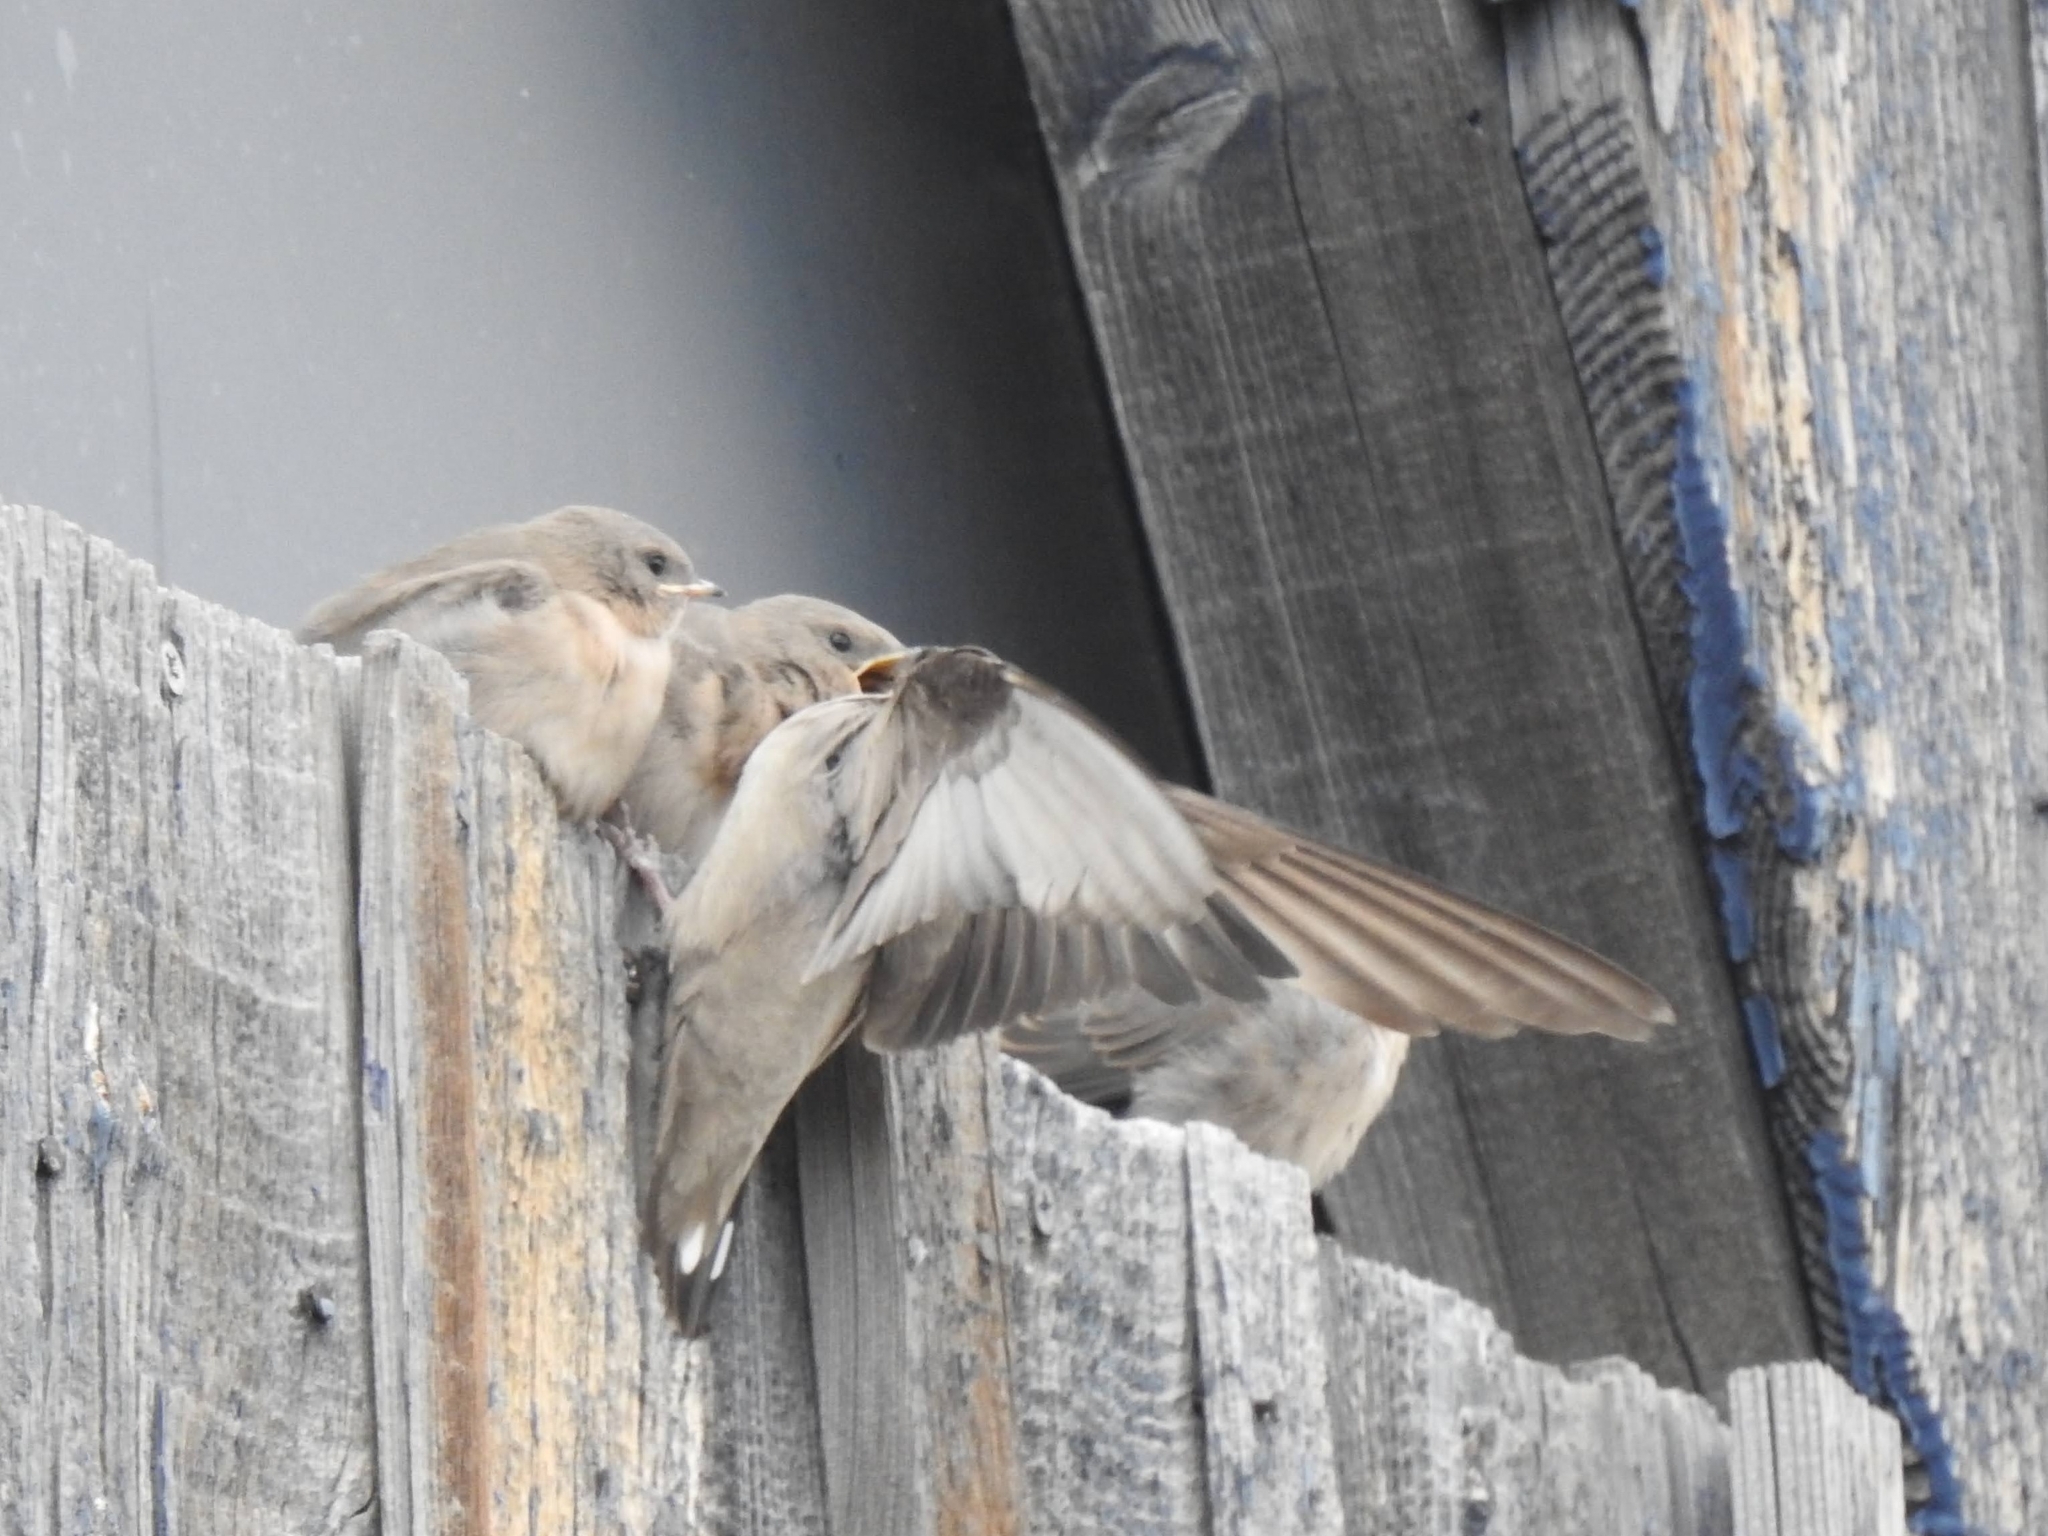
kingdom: Animalia
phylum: Chordata
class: Aves
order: Passeriformes
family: Hirundinidae
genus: Ptyonoprogne
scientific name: Ptyonoprogne rupestris
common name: Eurasian crag martin
